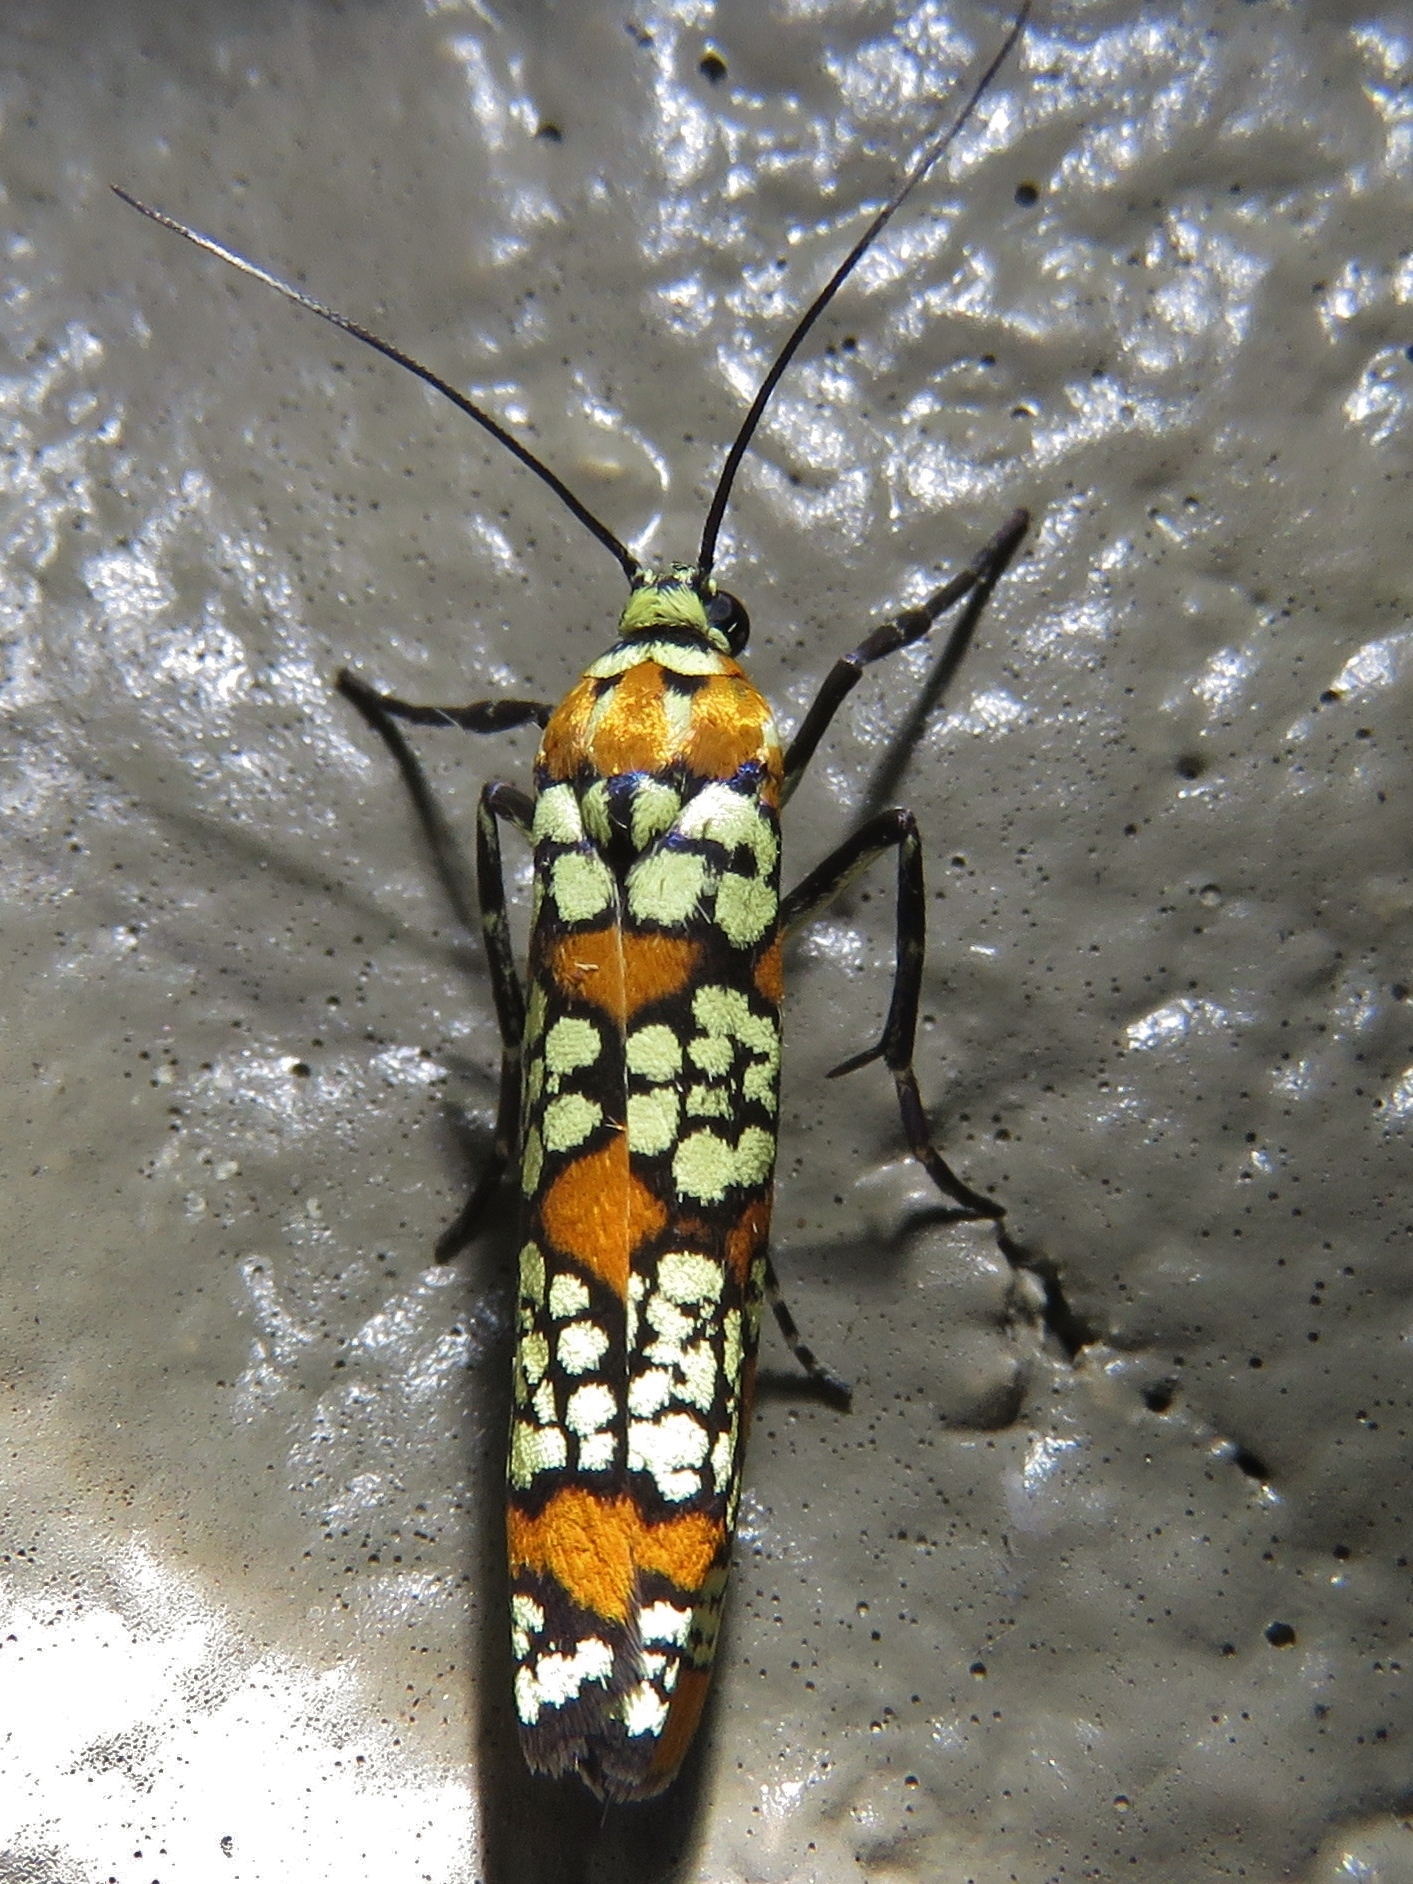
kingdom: Animalia
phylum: Arthropoda
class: Insecta
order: Lepidoptera
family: Attevidae
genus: Atteva
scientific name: Atteva punctella
